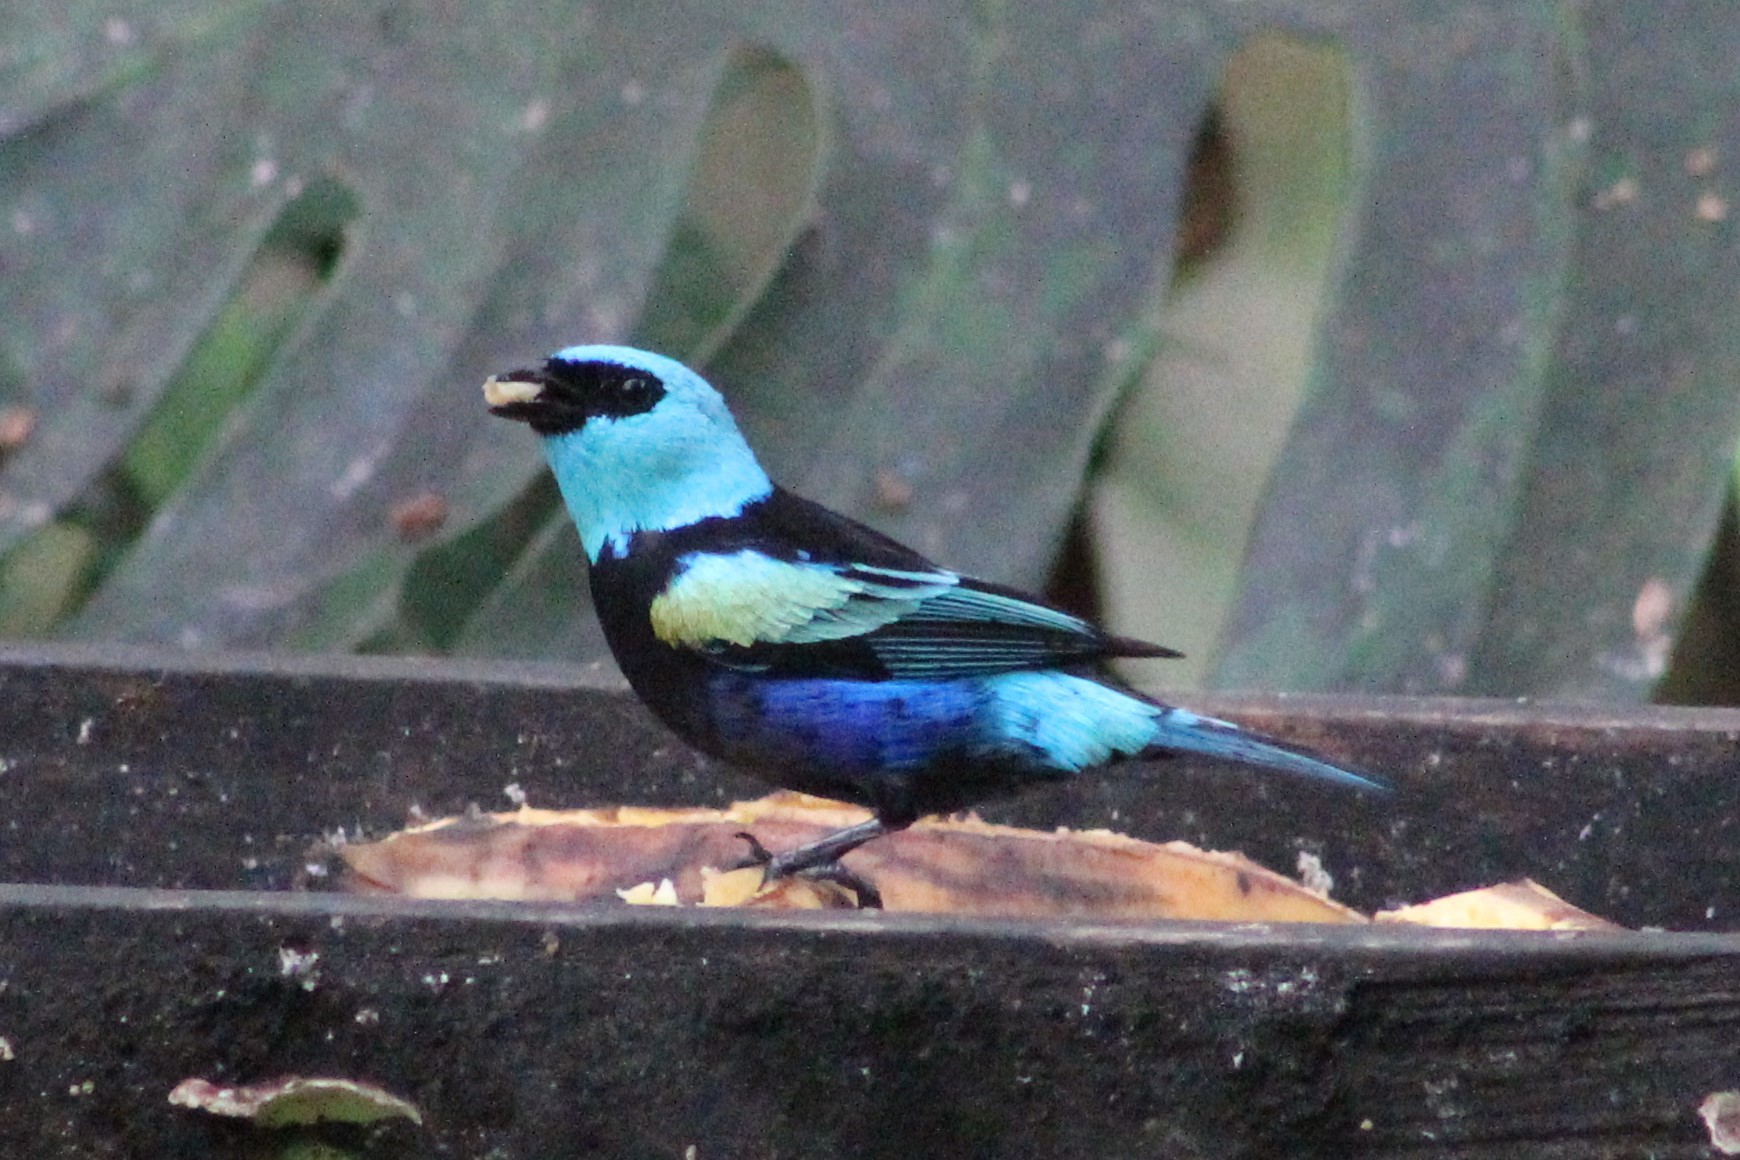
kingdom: Animalia
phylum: Chordata
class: Aves
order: Passeriformes
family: Thraupidae
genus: Stilpnia
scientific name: Stilpnia cyanicollis
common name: Blue-necked tanager
